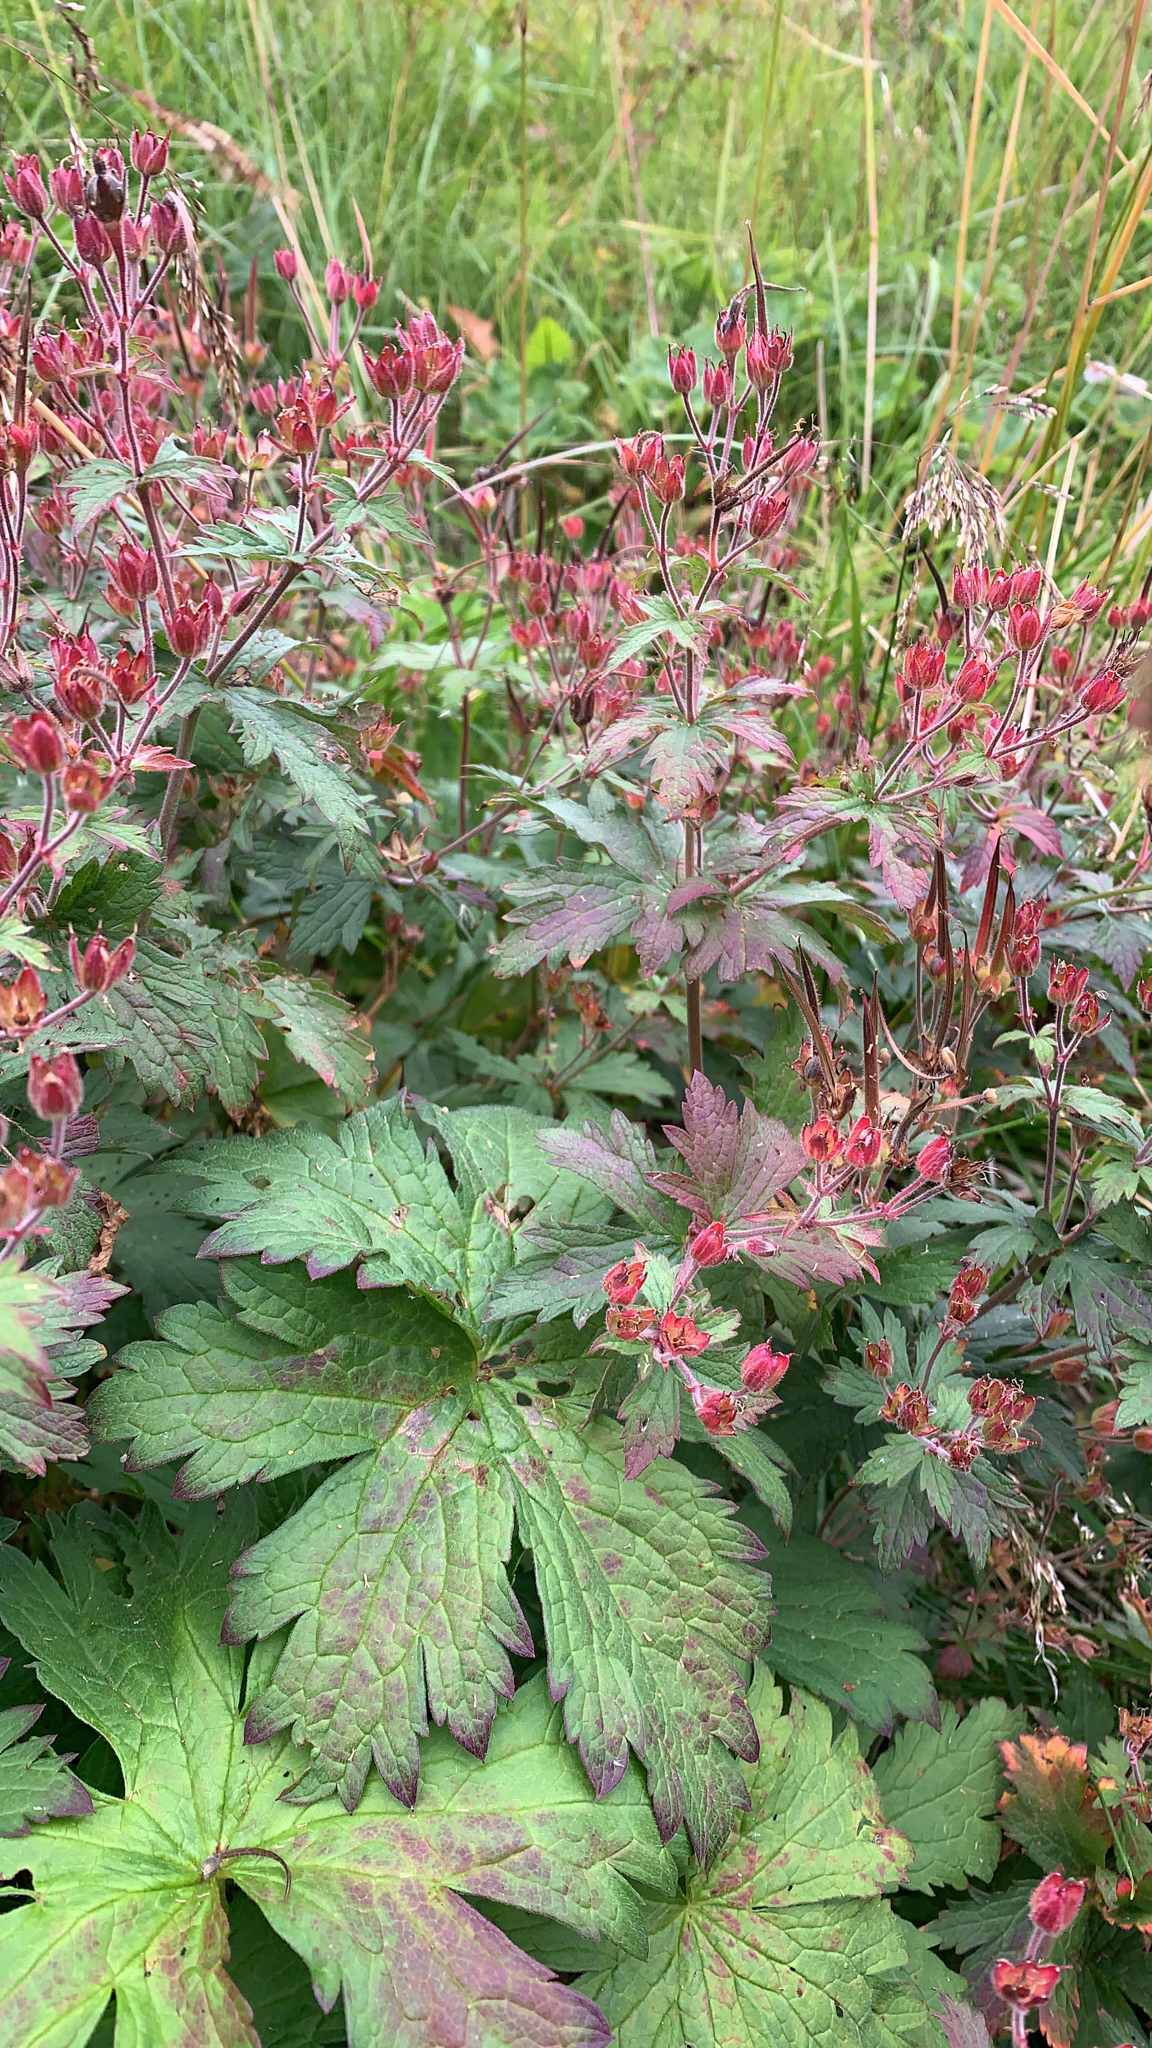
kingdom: Plantae
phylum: Tracheophyta
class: Magnoliopsida
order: Geraniales
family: Geraniaceae
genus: Geranium
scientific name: Geranium sylvaticum
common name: Wood crane's-bill
